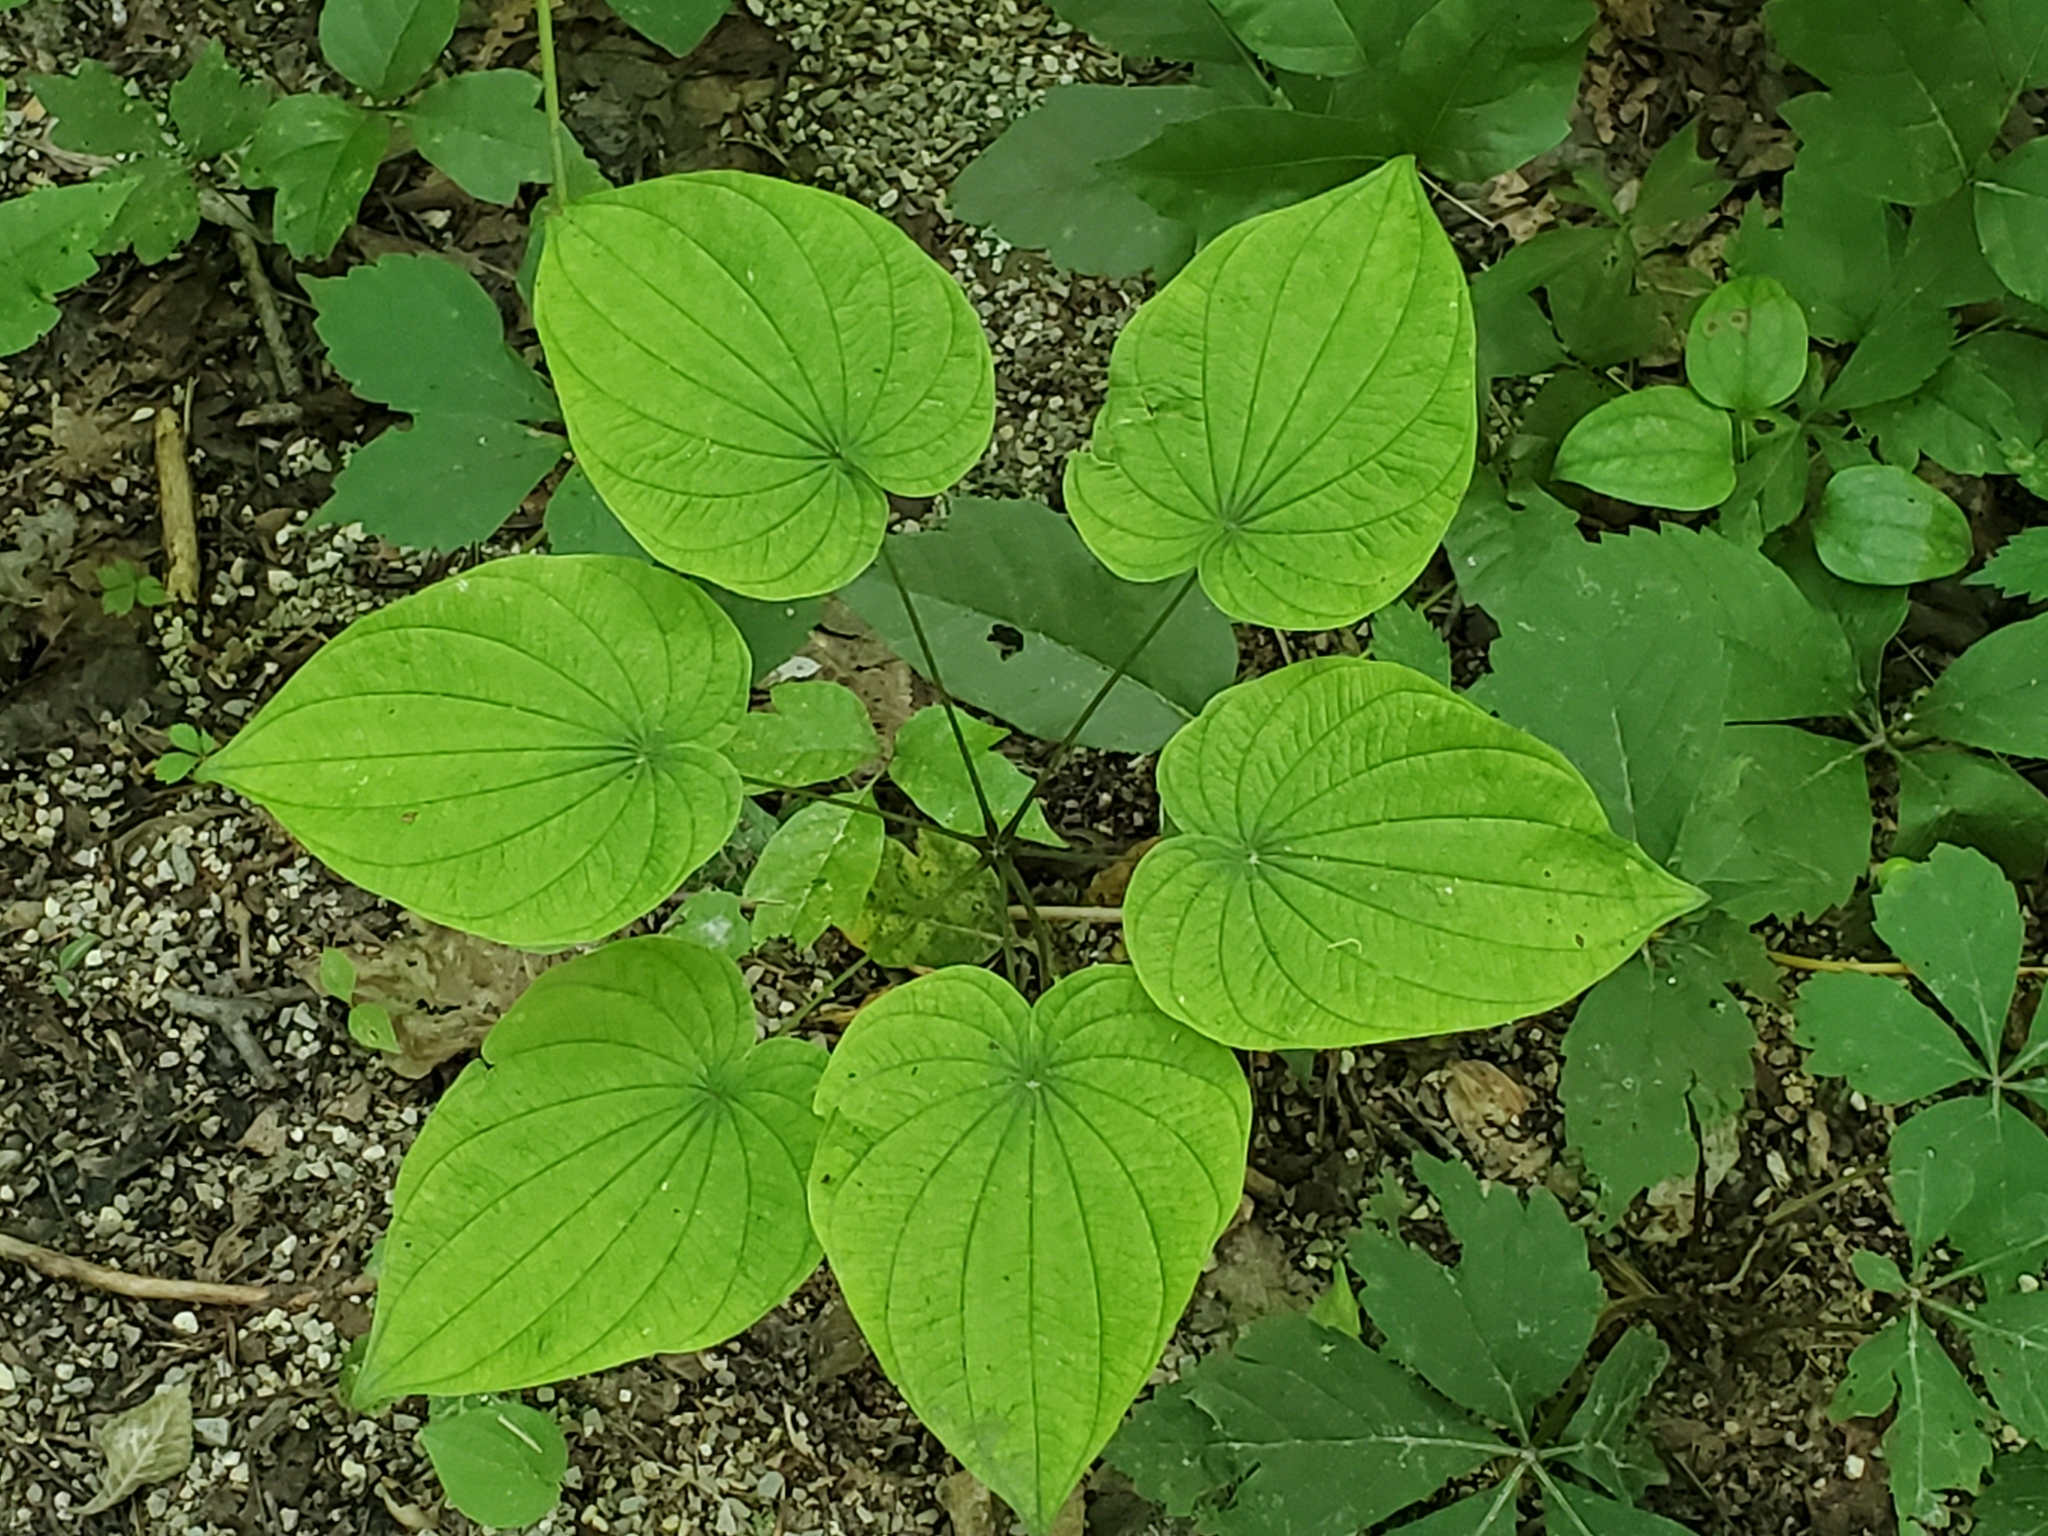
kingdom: Plantae
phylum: Tracheophyta
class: Liliopsida
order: Dioscoreales
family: Dioscoreaceae
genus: Dioscorea
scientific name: Dioscorea villosa
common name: Wild yam
